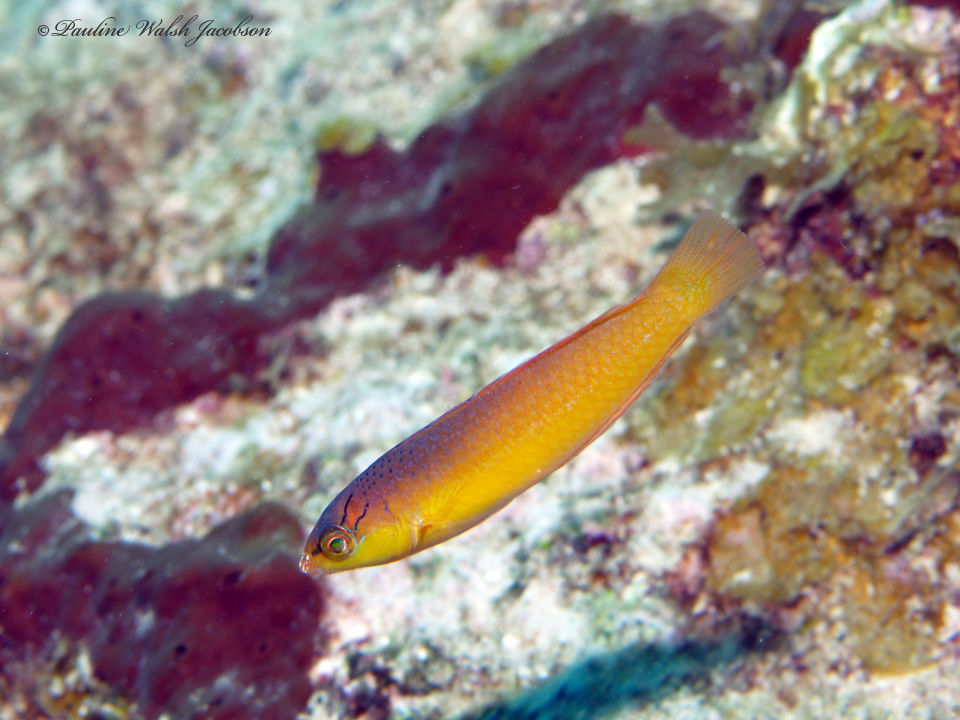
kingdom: Animalia
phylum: Chordata
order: Perciformes
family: Labridae
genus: Halichoeres
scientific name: Halichoeres garnoti
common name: Yellowhead wrasse
